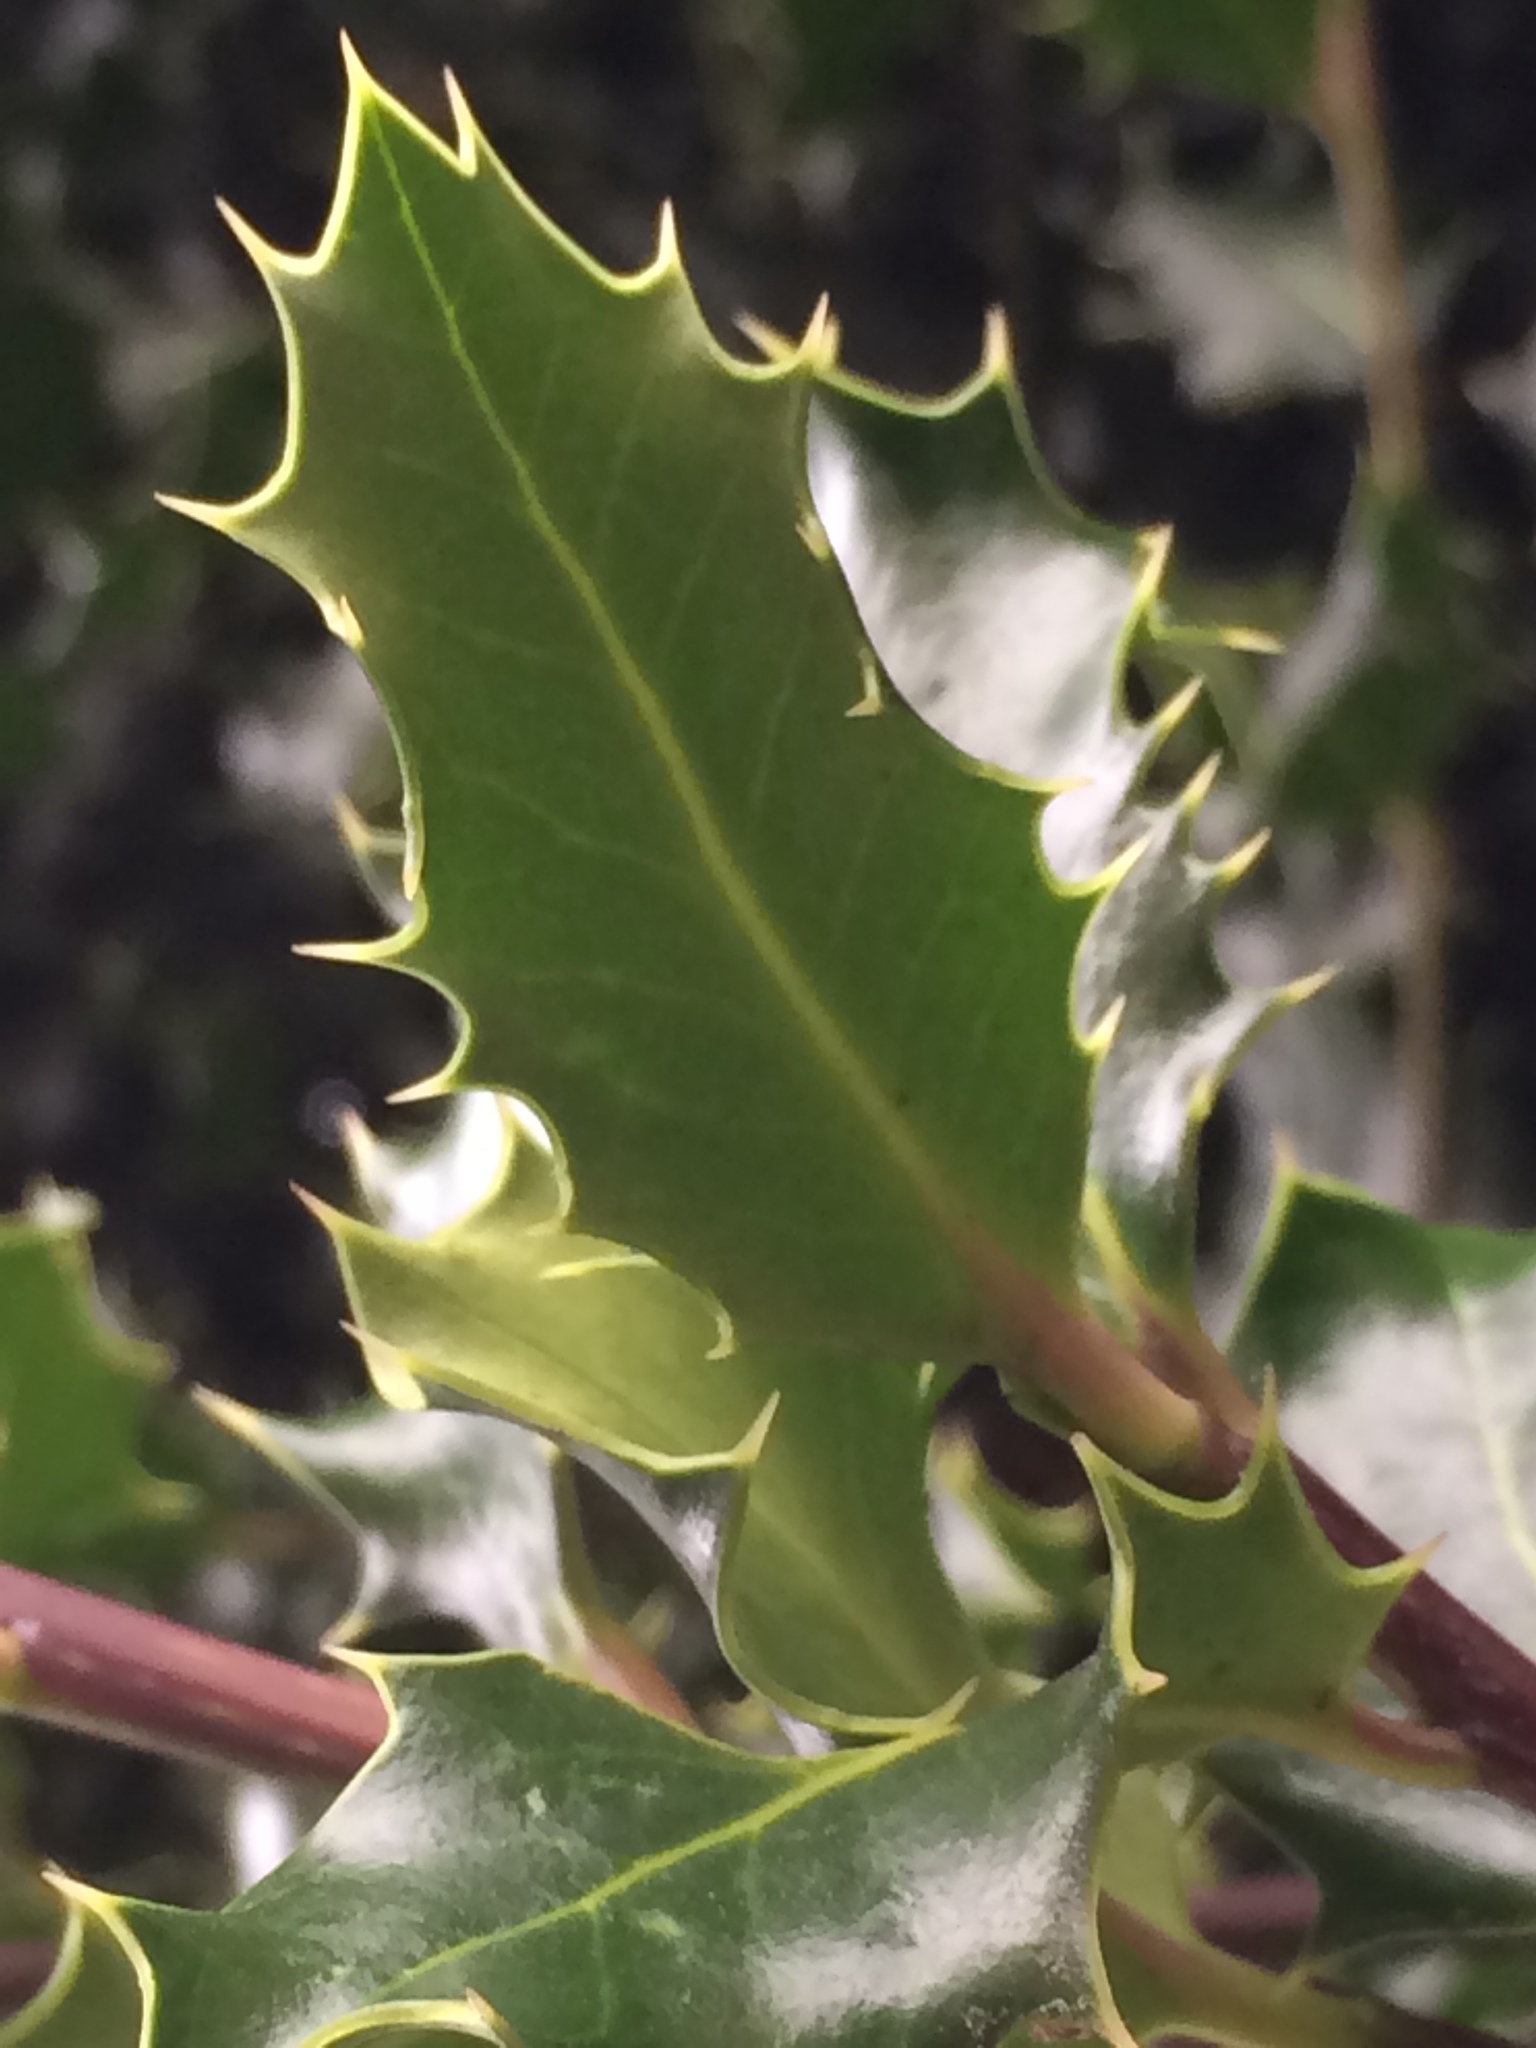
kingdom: Plantae
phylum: Tracheophyta
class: Magnoliopsida
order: Aquifoliales
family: Aquifoliaceae
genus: Ilex
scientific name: Ilex aquifolium
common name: English holly
